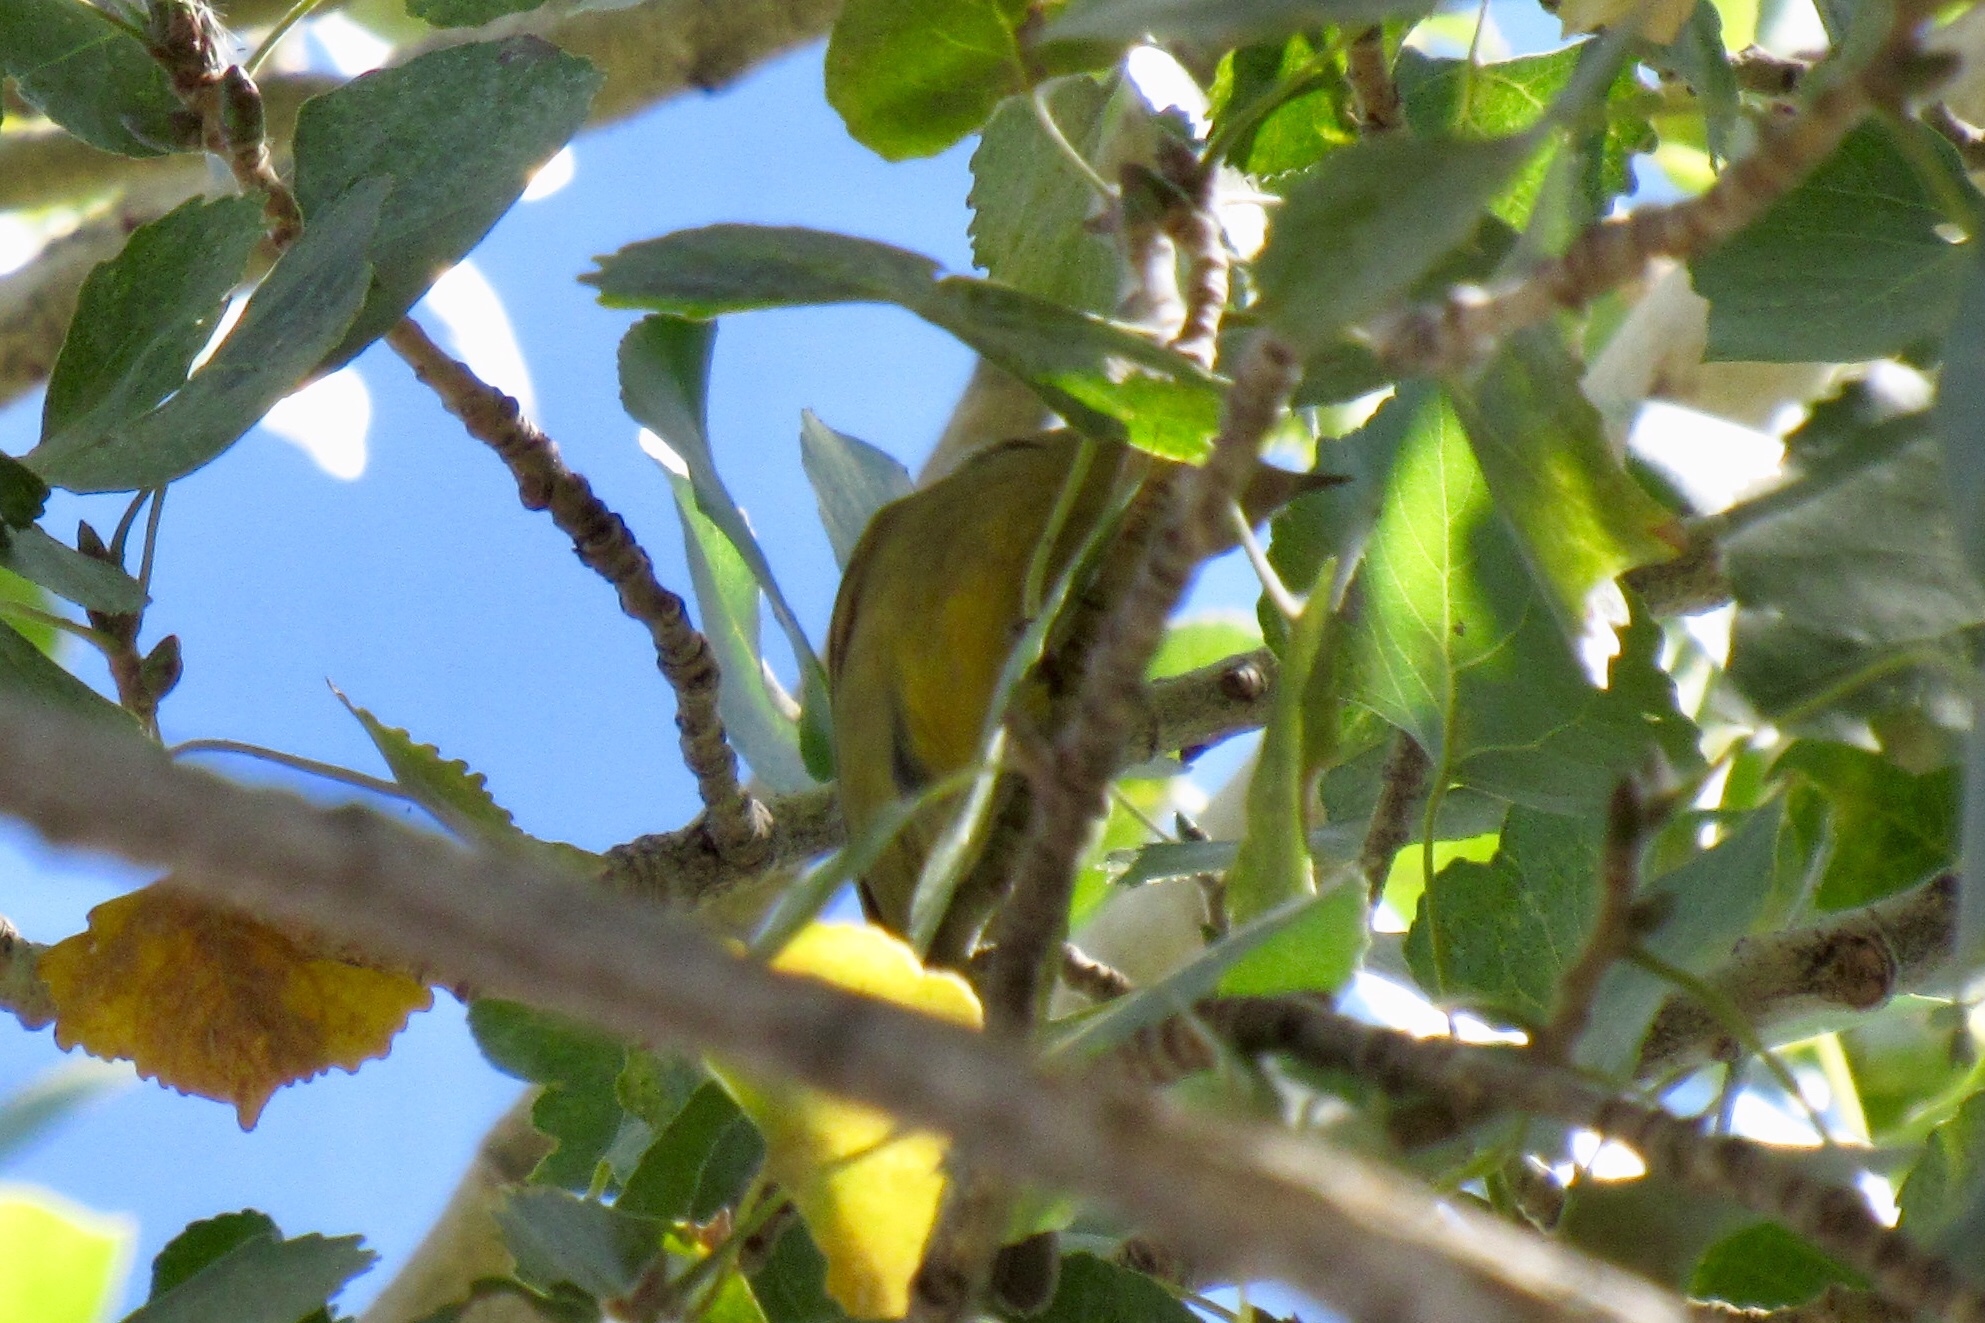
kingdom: Animalia
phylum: Chordata
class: Aves
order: Passeriformes
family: Parulidae
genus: Leiothlypis
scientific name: Leiothlypis celata
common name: Orange-crowned warbler
